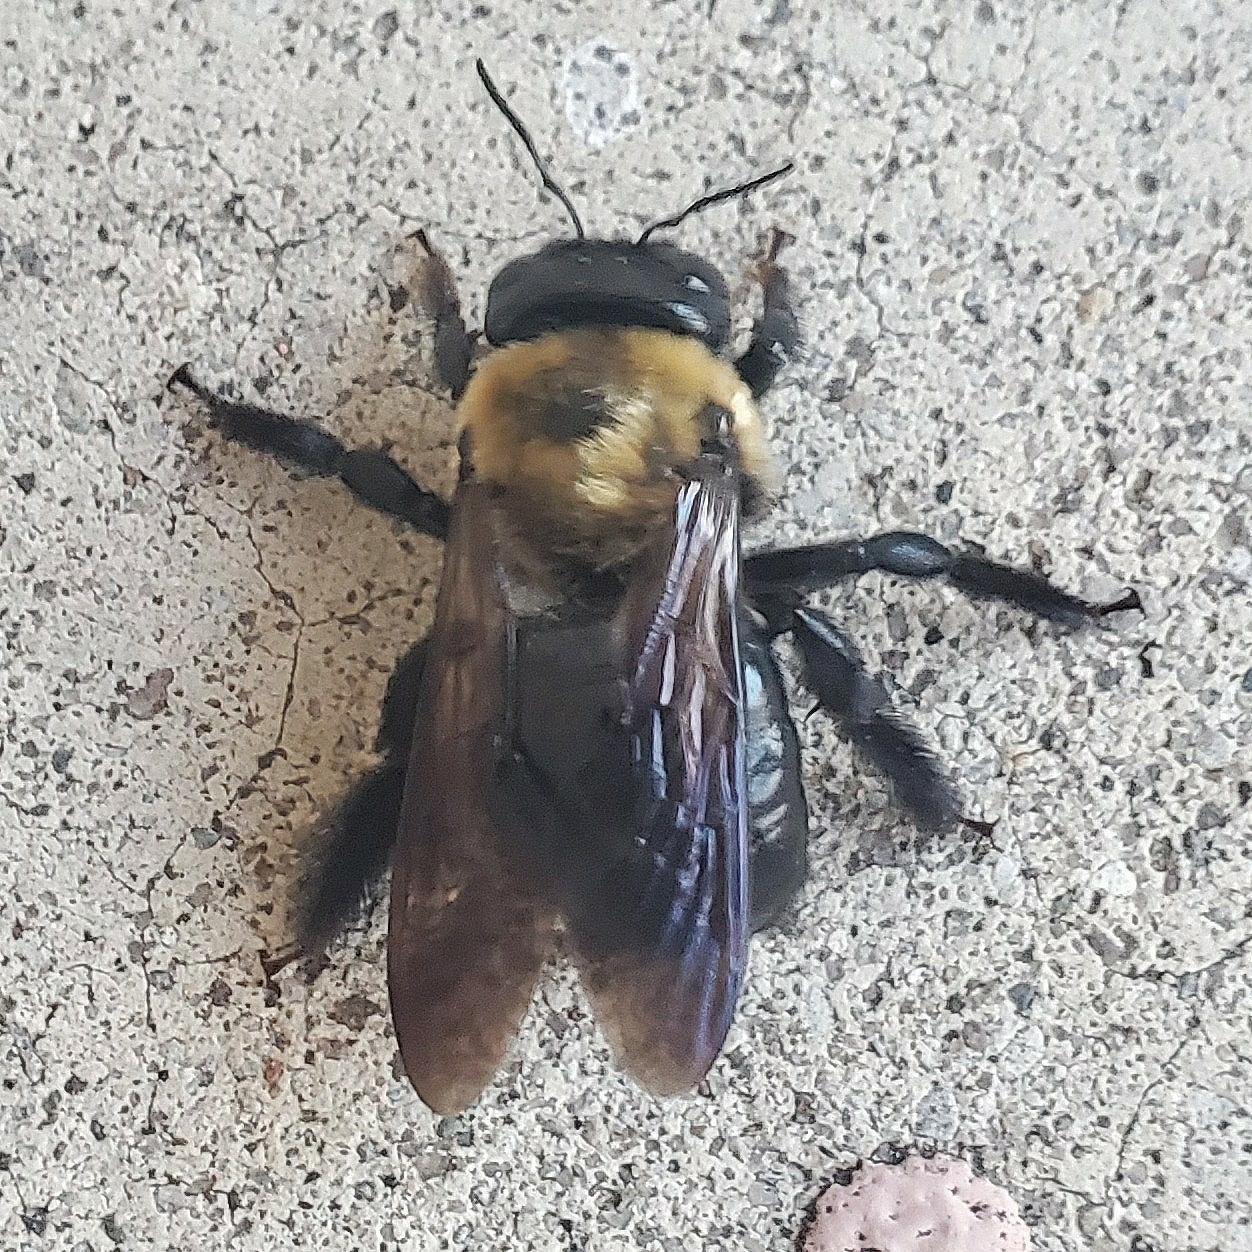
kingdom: Animalia
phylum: Arthropoda
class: Insecta
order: Hymenoptera
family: Apidae
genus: Xylocopa
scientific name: Xylocopa virginica
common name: Carpenter bee
